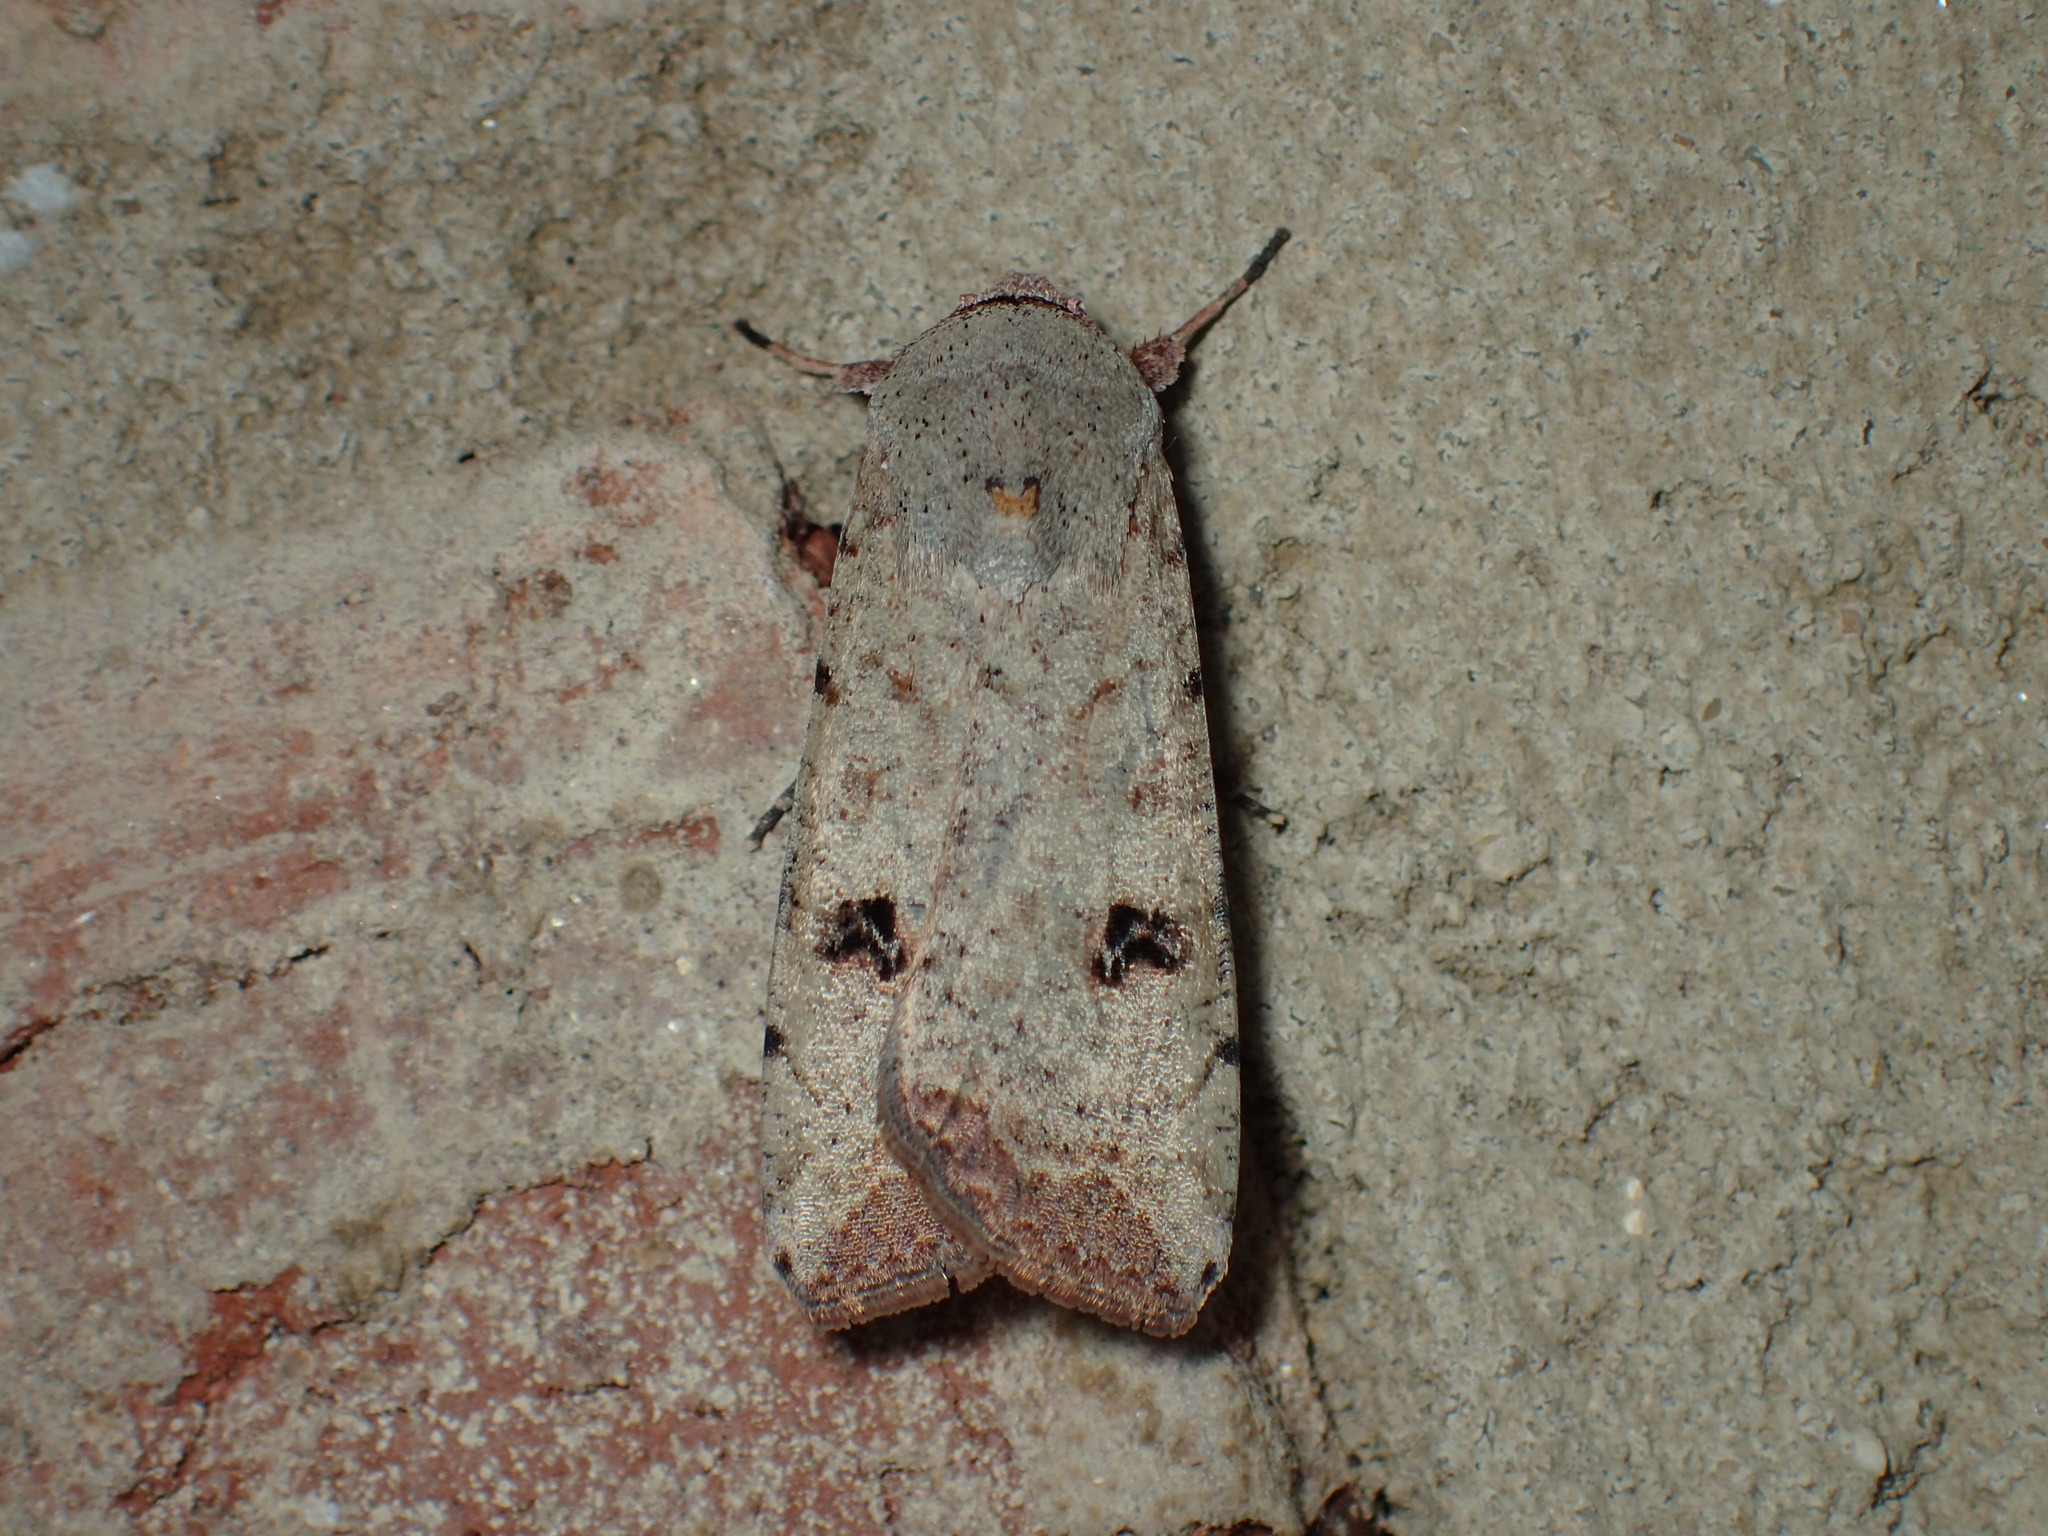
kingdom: Animalia
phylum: Arthropoda
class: Insecta
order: Lepidoptera
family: Noctuidae
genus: Anicla
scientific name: Anicla infecta
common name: Green cutworm
